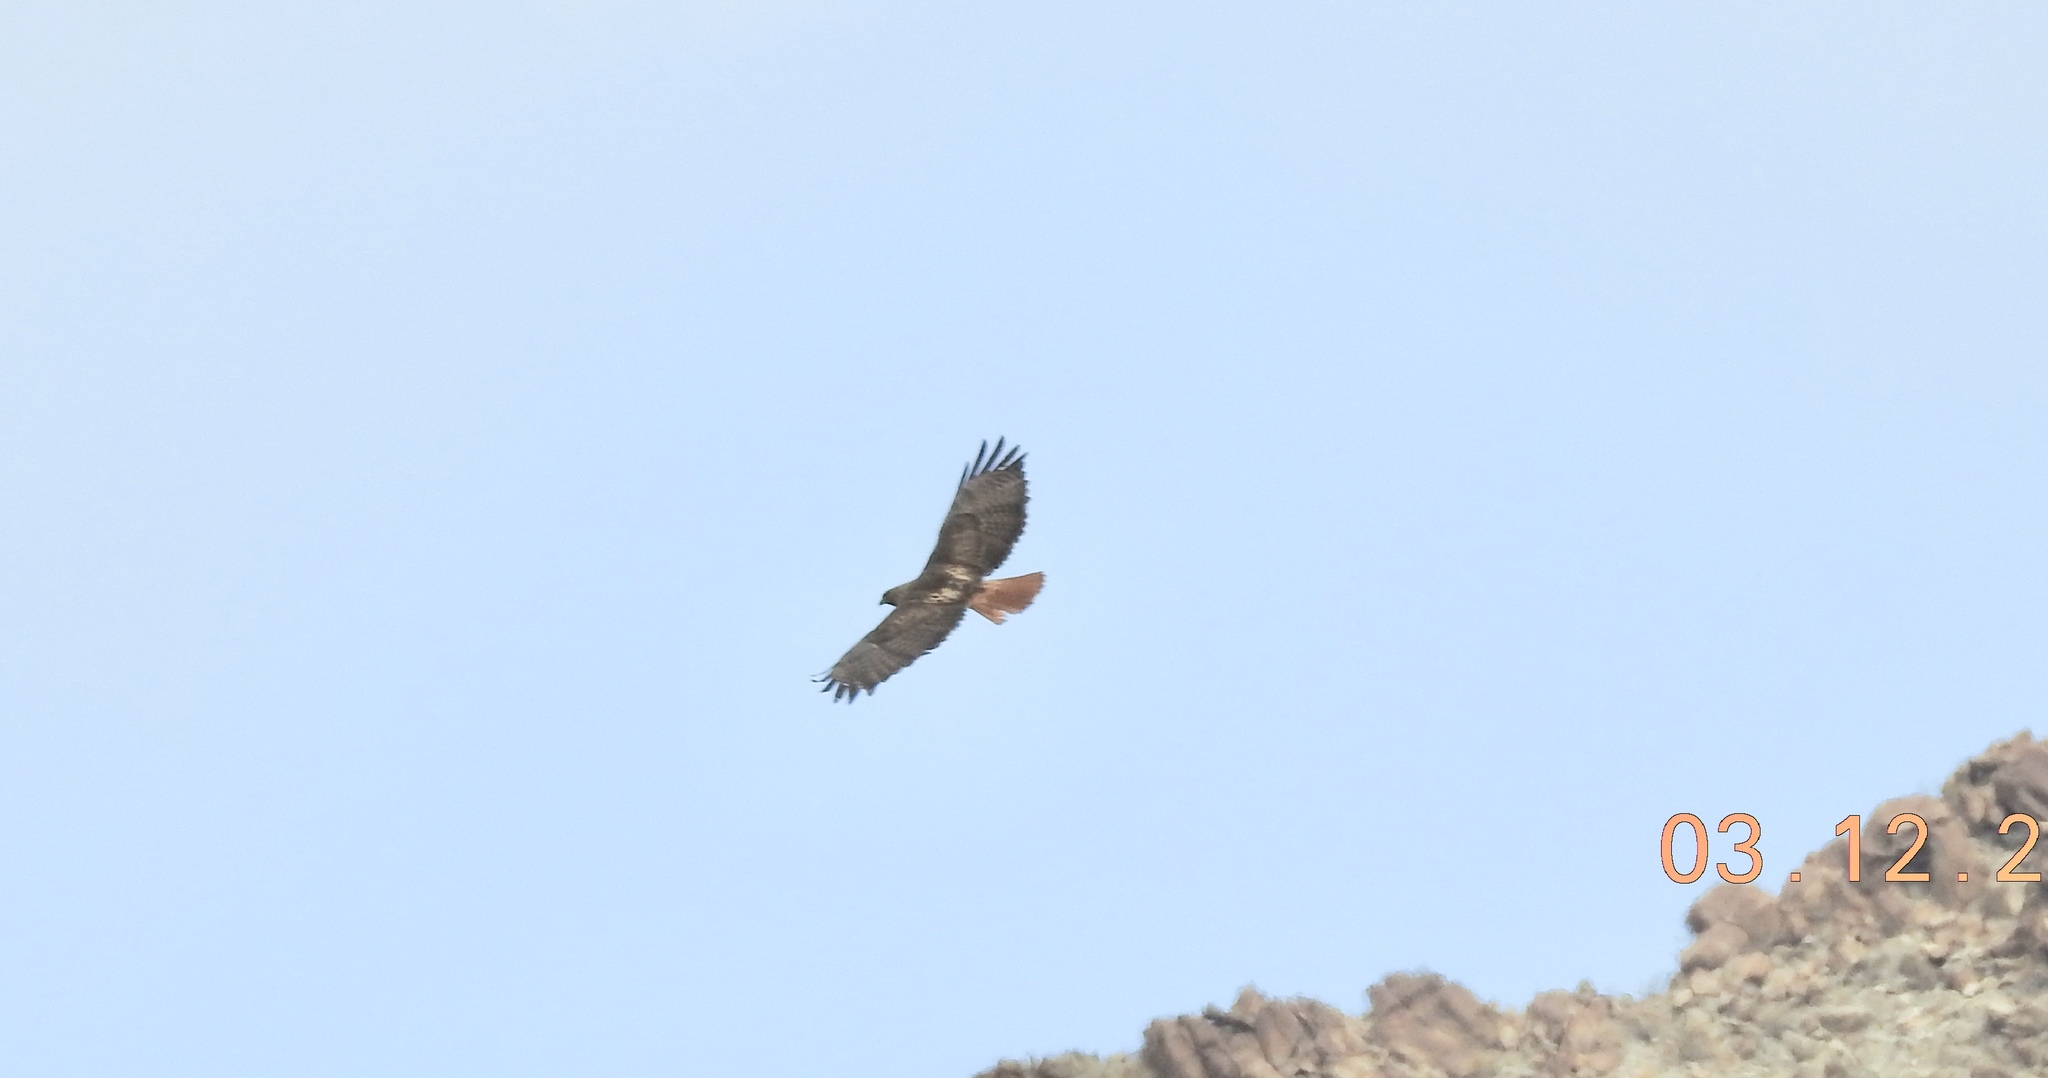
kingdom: Animalia
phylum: Chordata
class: Aves
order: Accipitriformes
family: Accipitridae
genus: Buteo
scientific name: Buteo jamaicensis
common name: Red-tailed hawk
